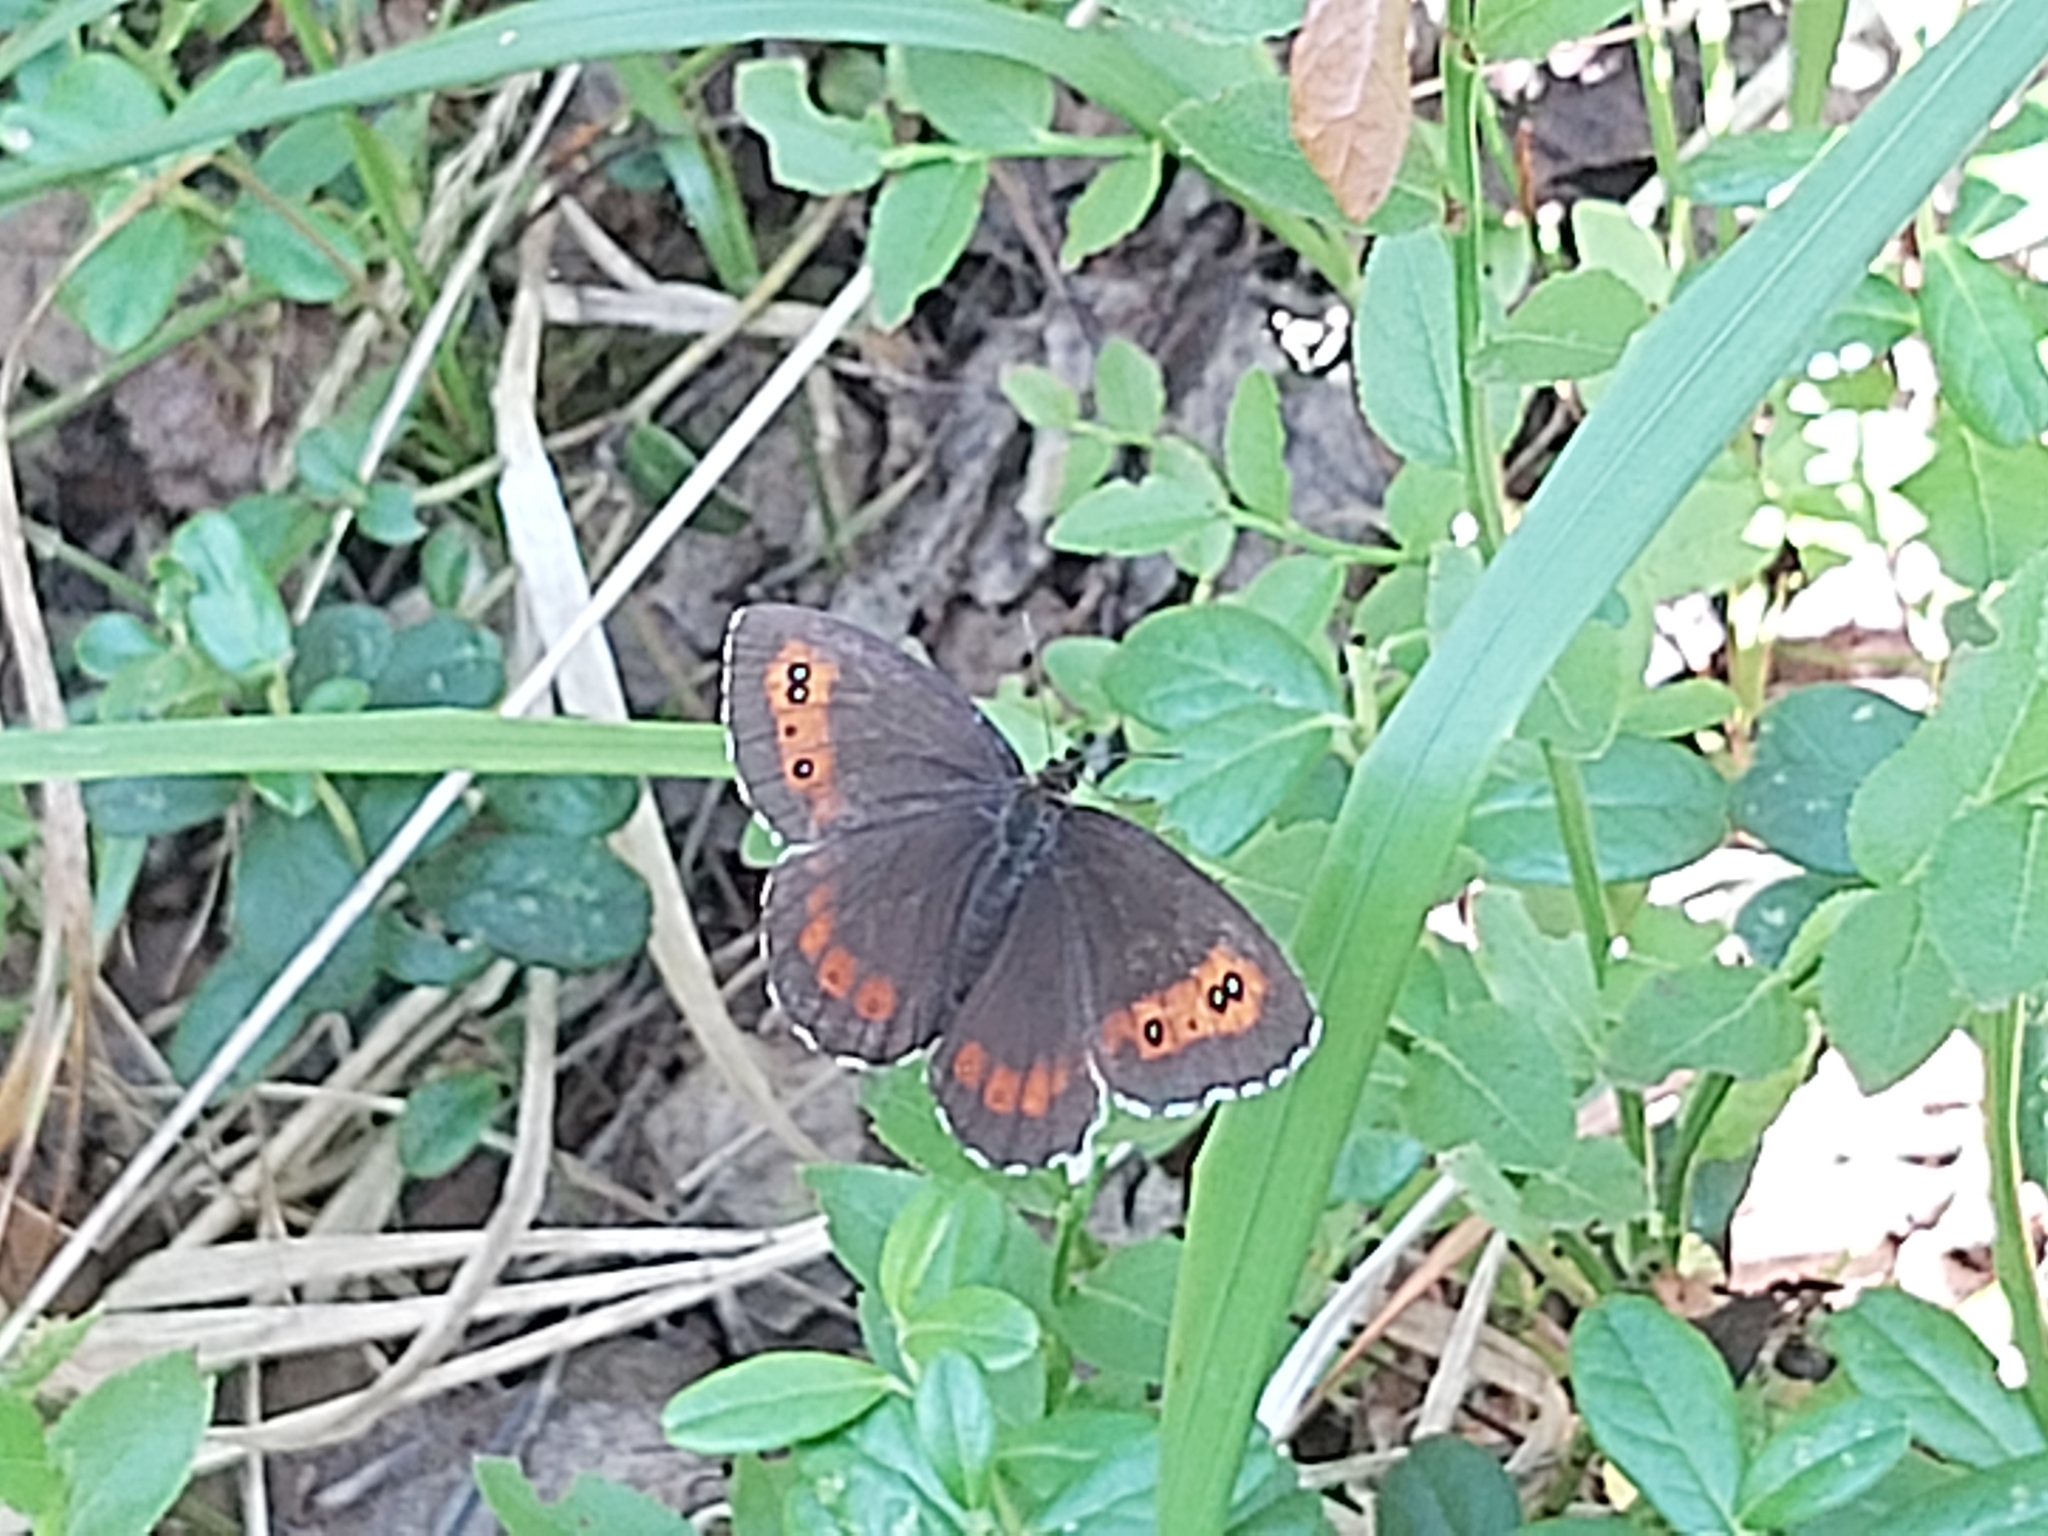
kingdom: Animalia
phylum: Arthropoda
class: Insecta
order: Lepidoptera
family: Nymphalidae
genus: Erebia
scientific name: Erebia ligea
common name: Arran brown
